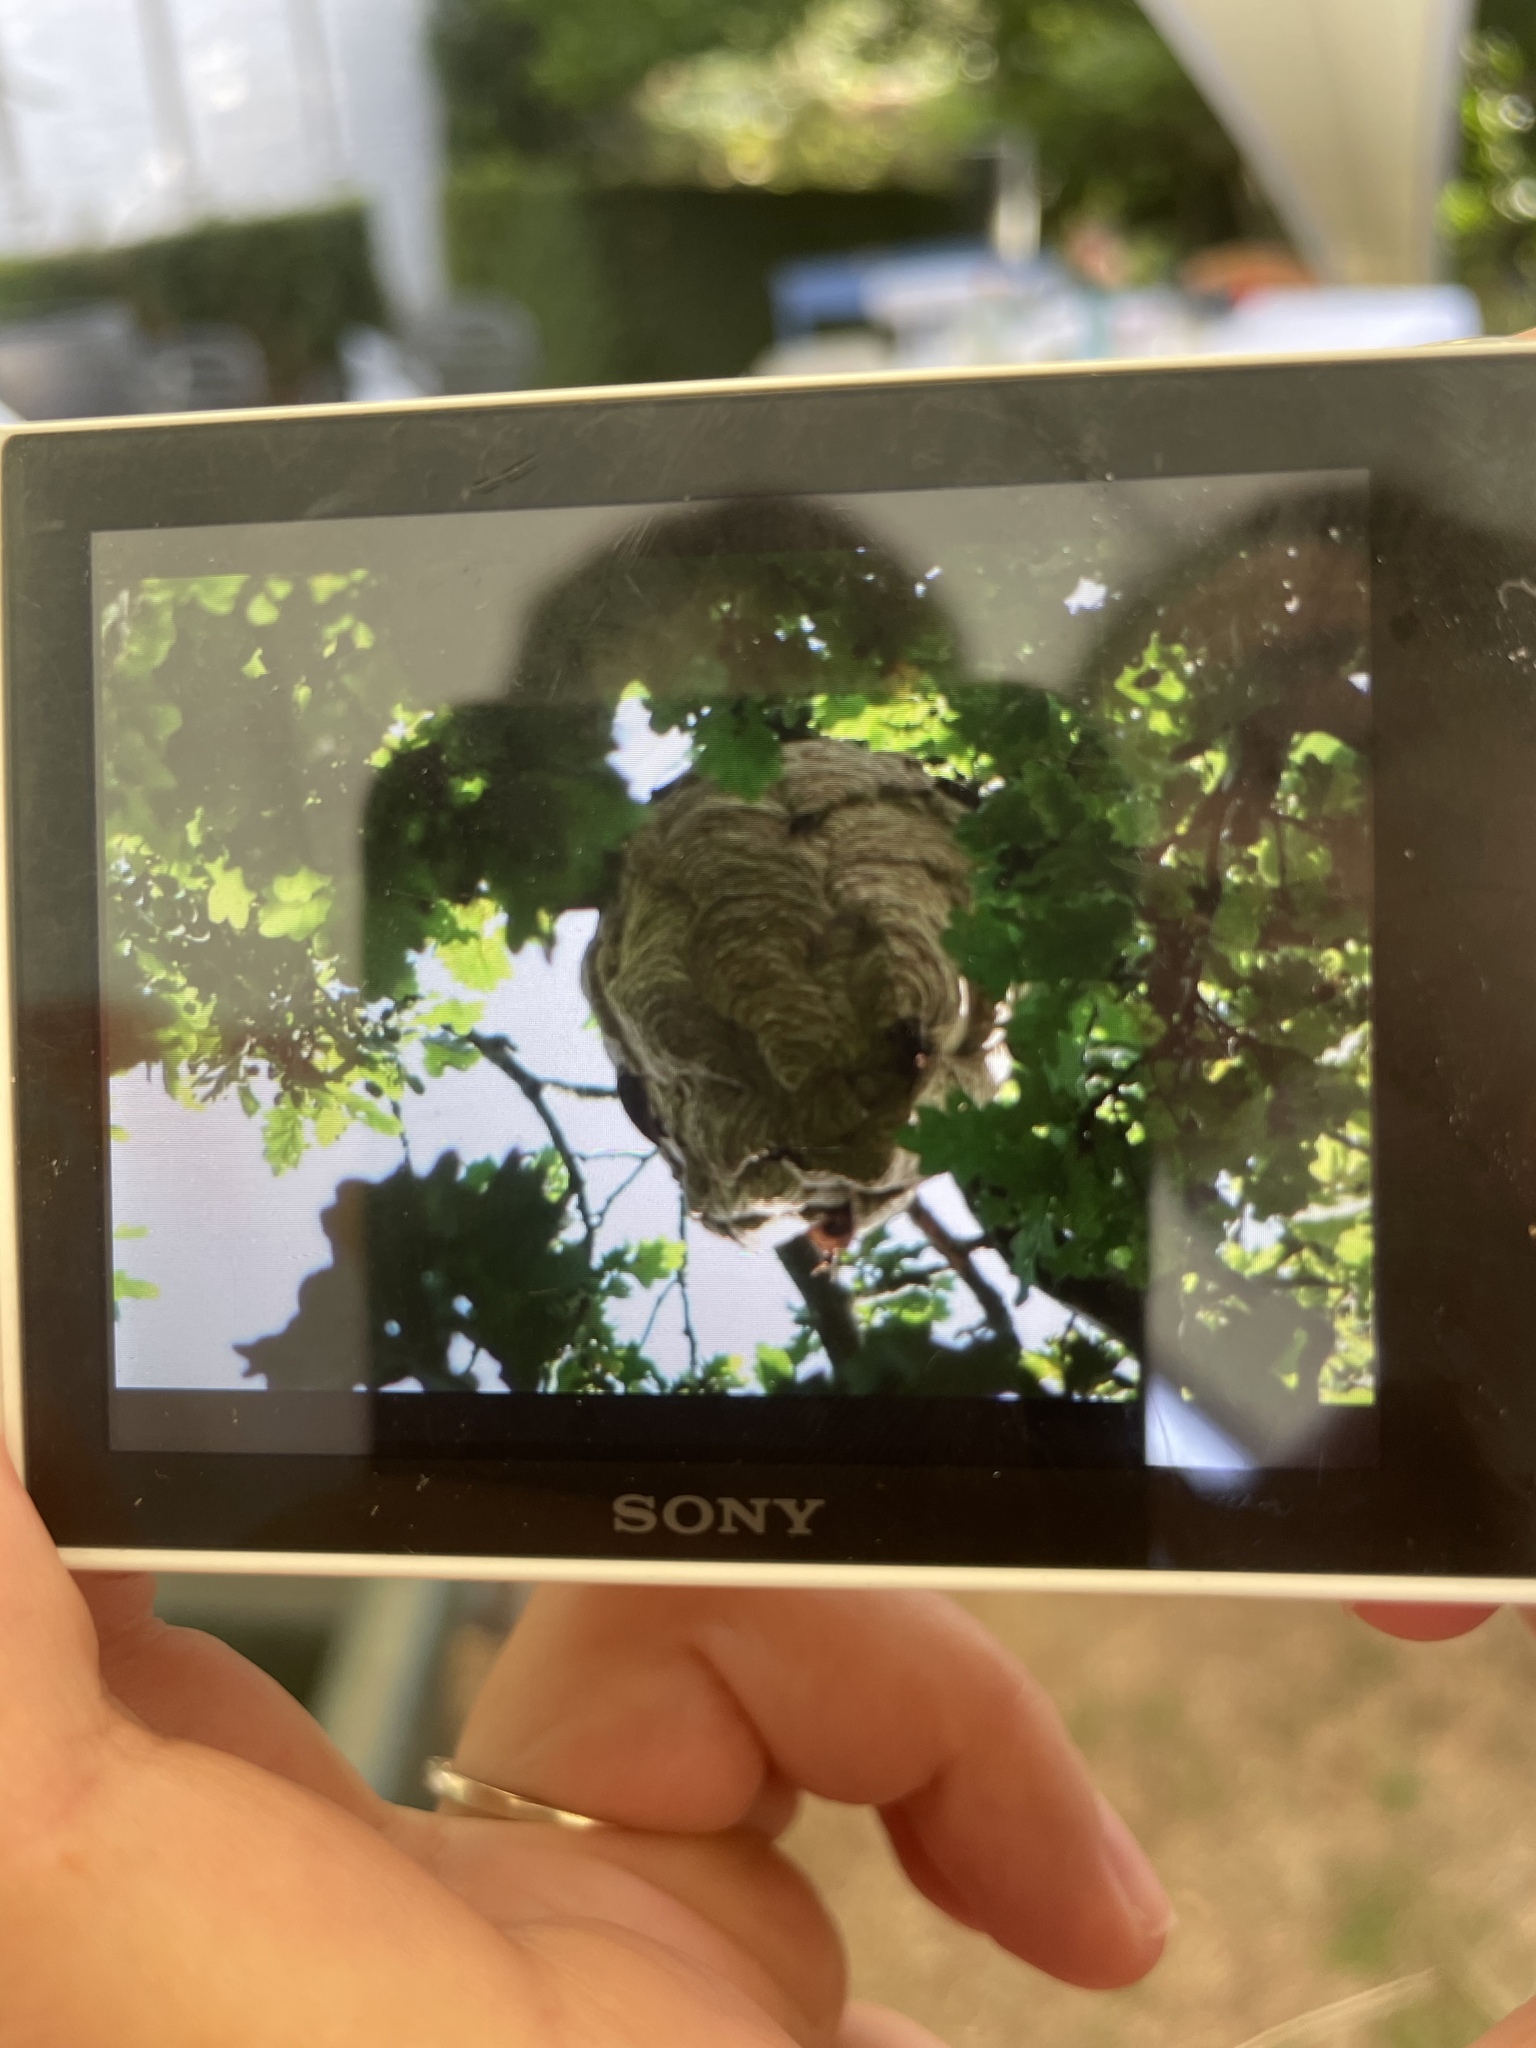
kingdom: Animalia
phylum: Arthropoda
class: Insecta
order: Hymenoptera
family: Vespidae
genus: Vespa
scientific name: Vespa velutina
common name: Asian hornet
